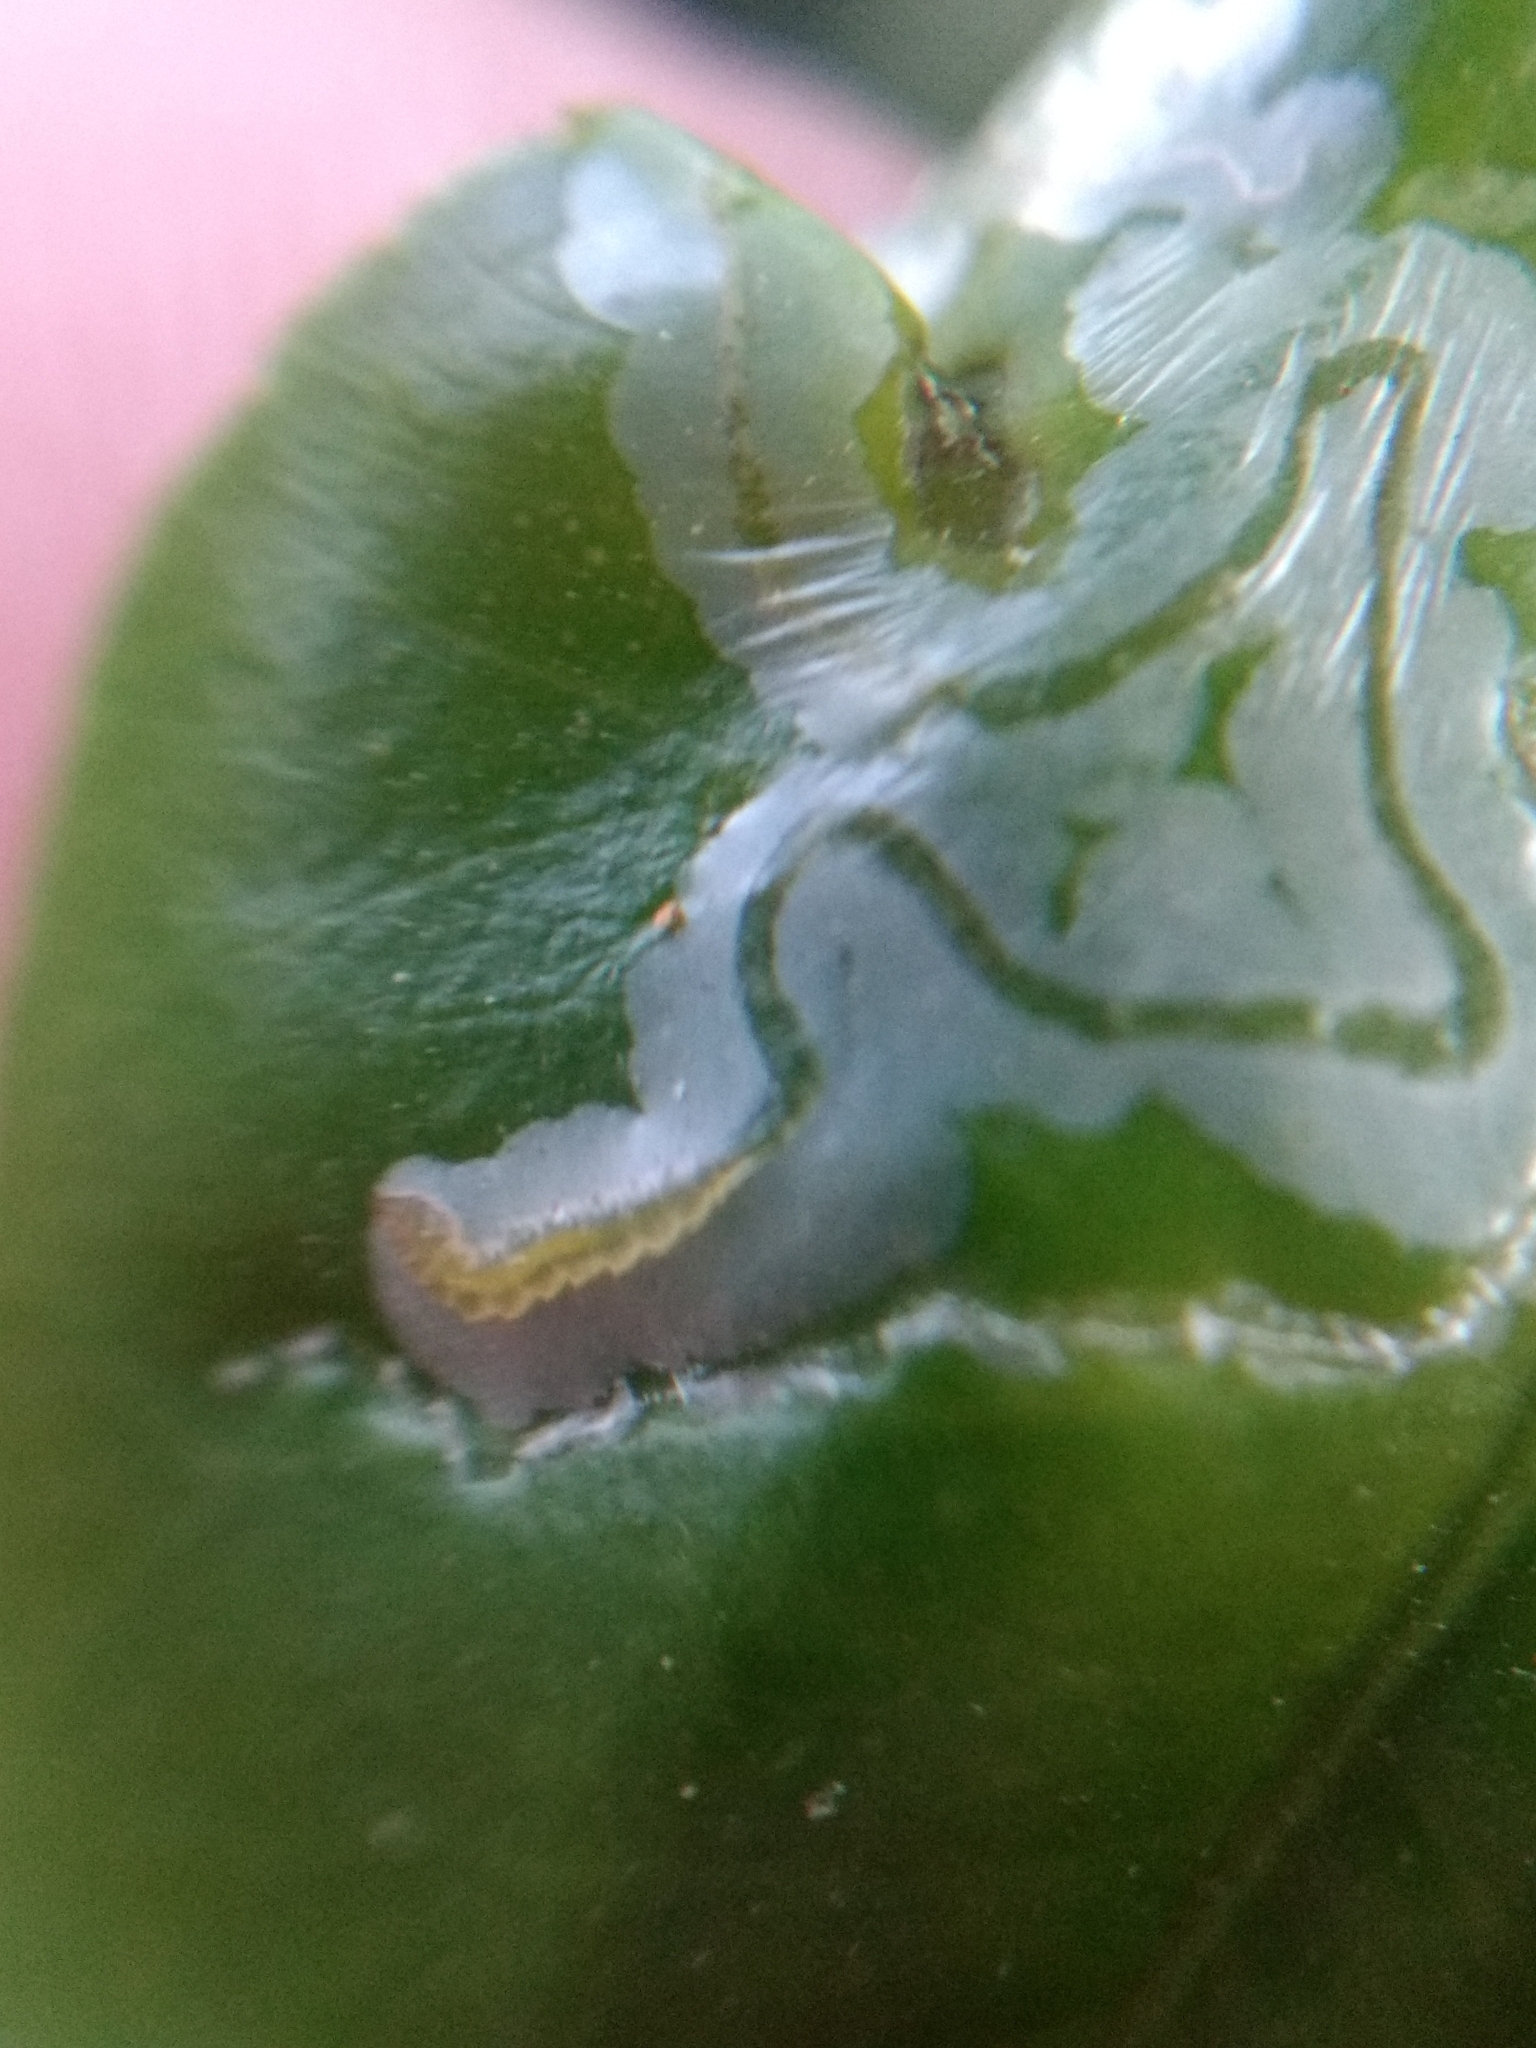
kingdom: Animalia
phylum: Arthropoda
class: Insecta
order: Lepidoptera
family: Gracillariidae
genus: Phyllocnistis
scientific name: Phyllocnistis citrella
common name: Citrus leafminer
